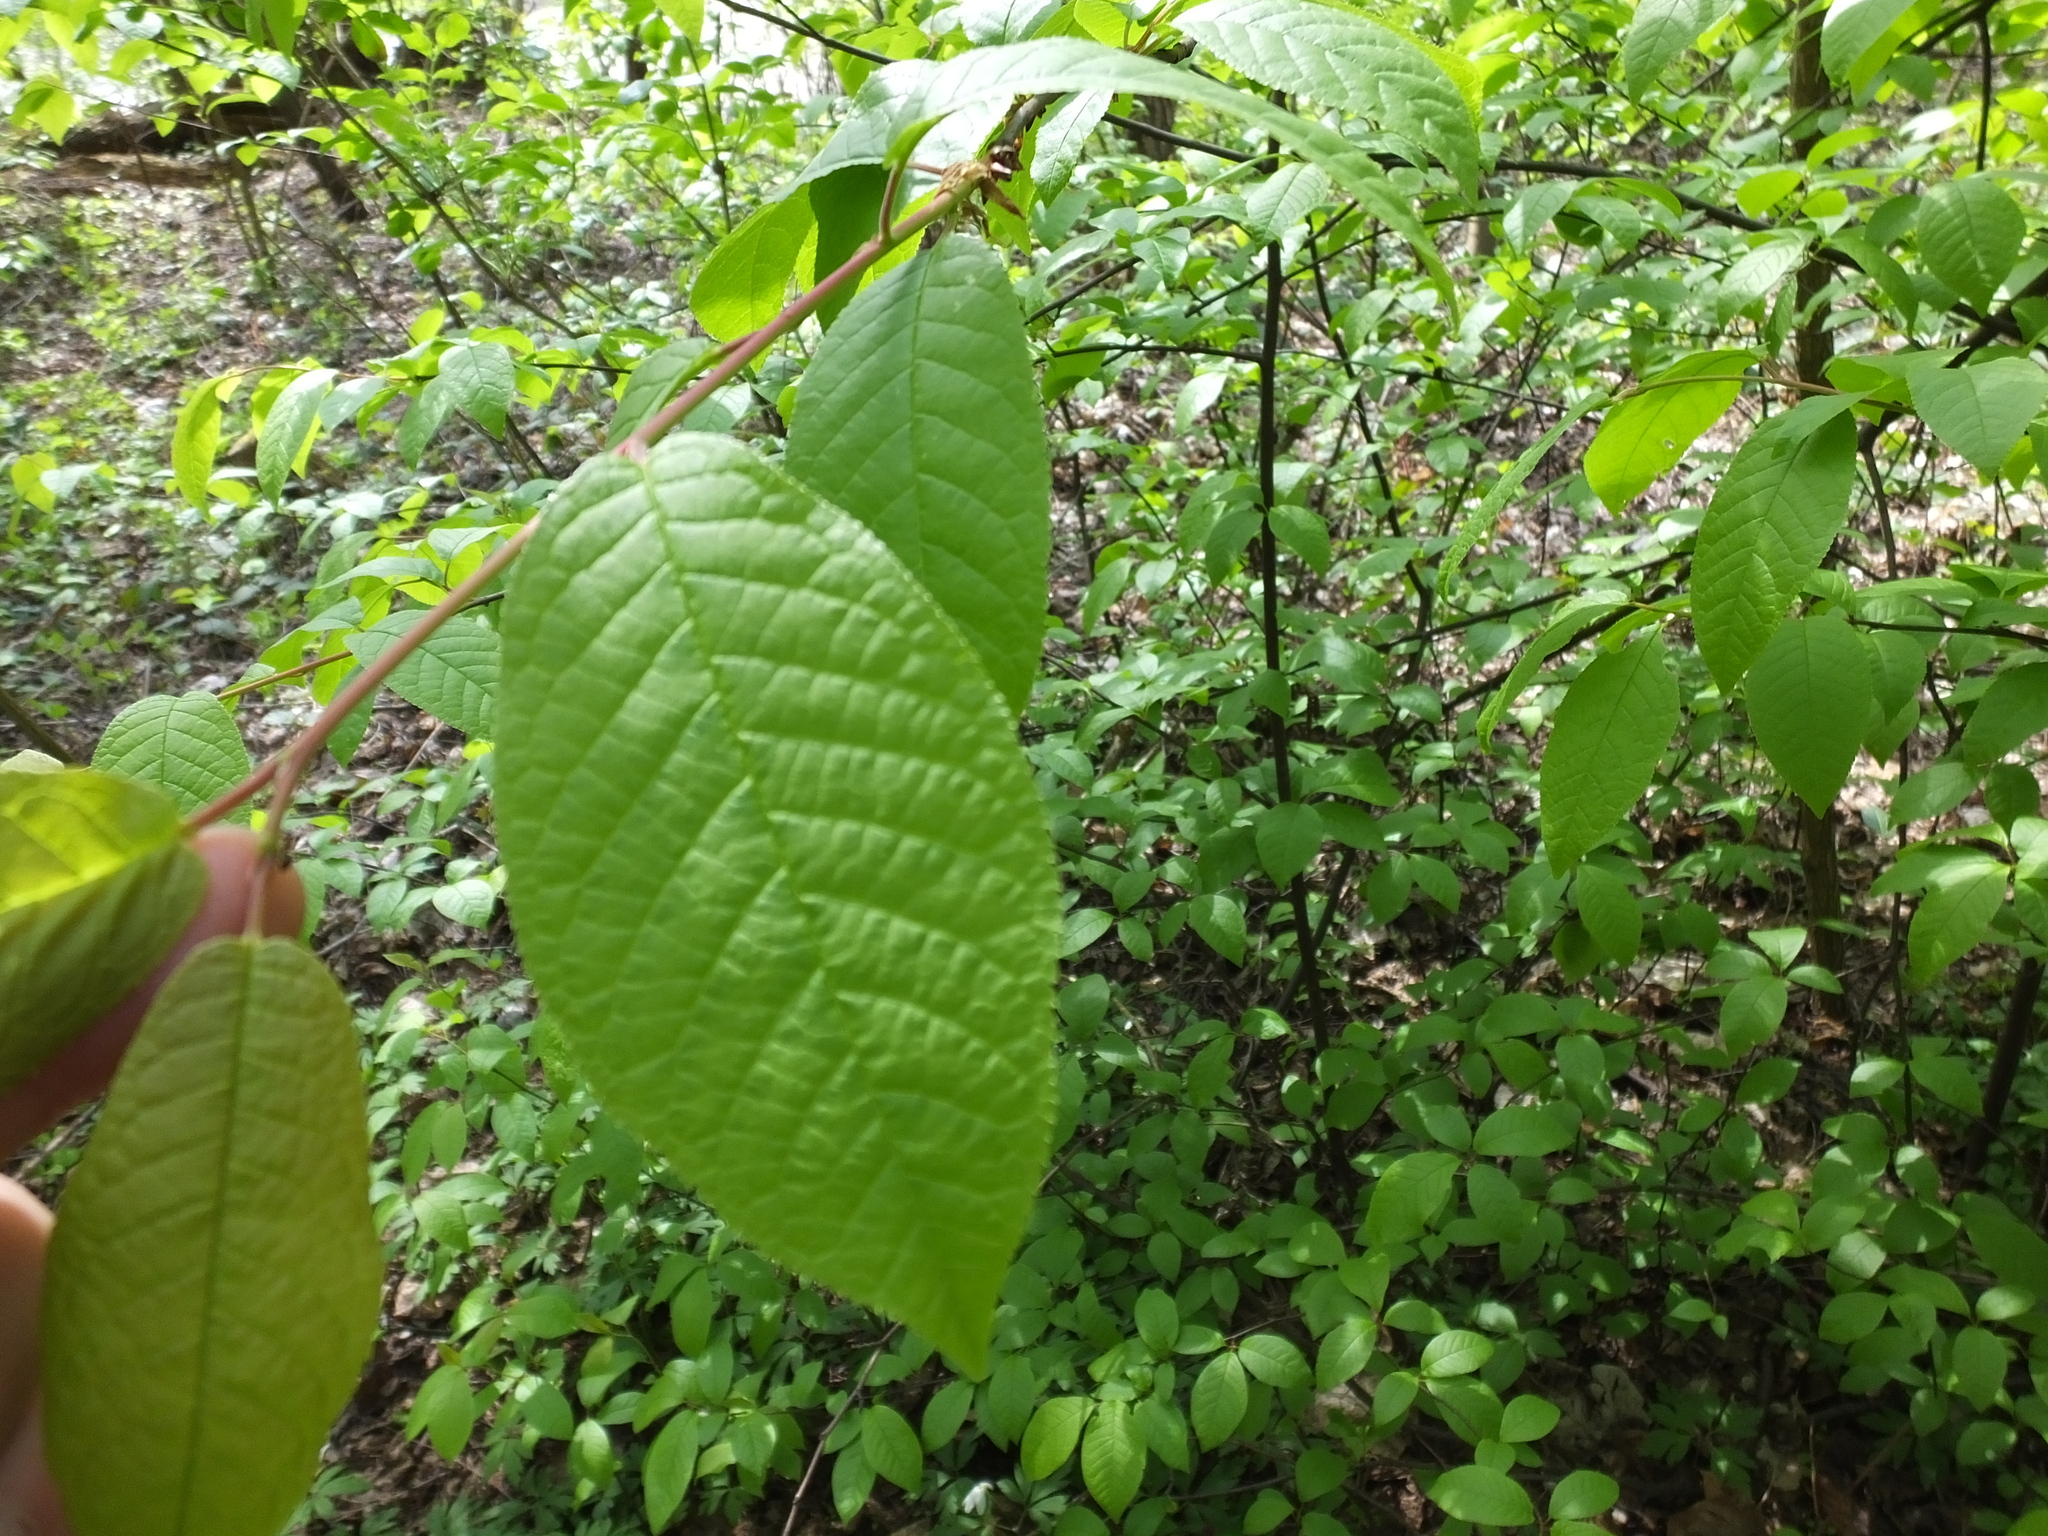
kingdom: Plantae
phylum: Tracheophyta
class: Magnoliopsida
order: Rosales
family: Rosaceae
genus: Prunus
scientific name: Prunus padus
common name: Bird cherry
